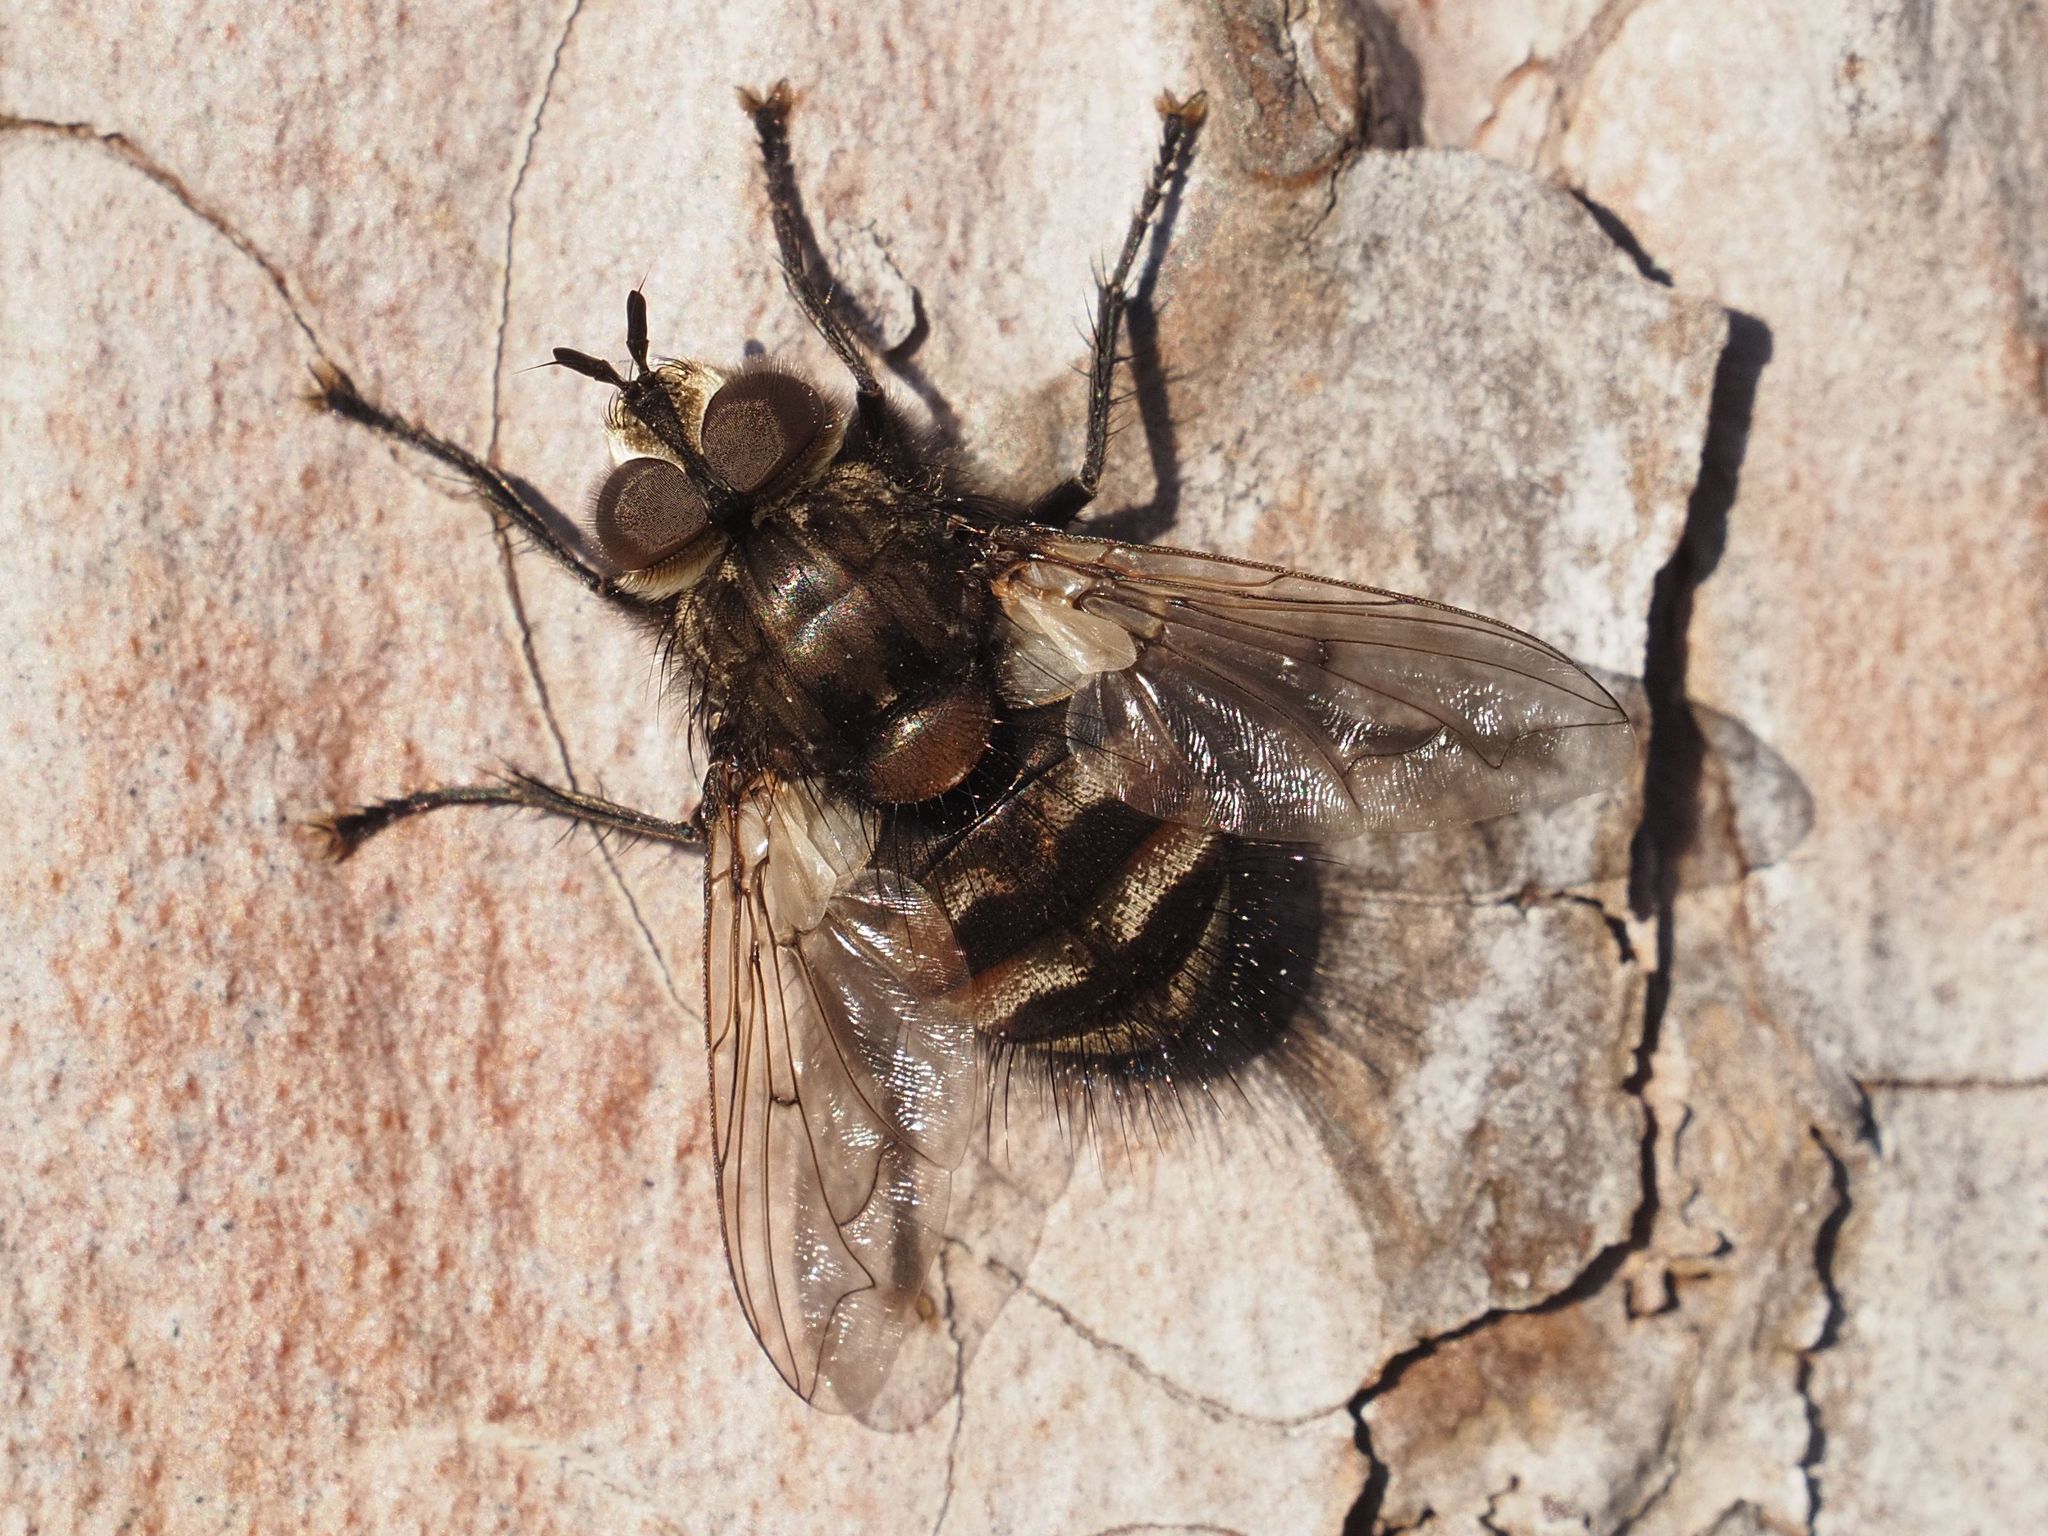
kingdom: Animalia
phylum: Arthropoda
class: Insecta
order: Diptera
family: Tachinidae
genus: Panzeria
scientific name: Panzeria puparum
